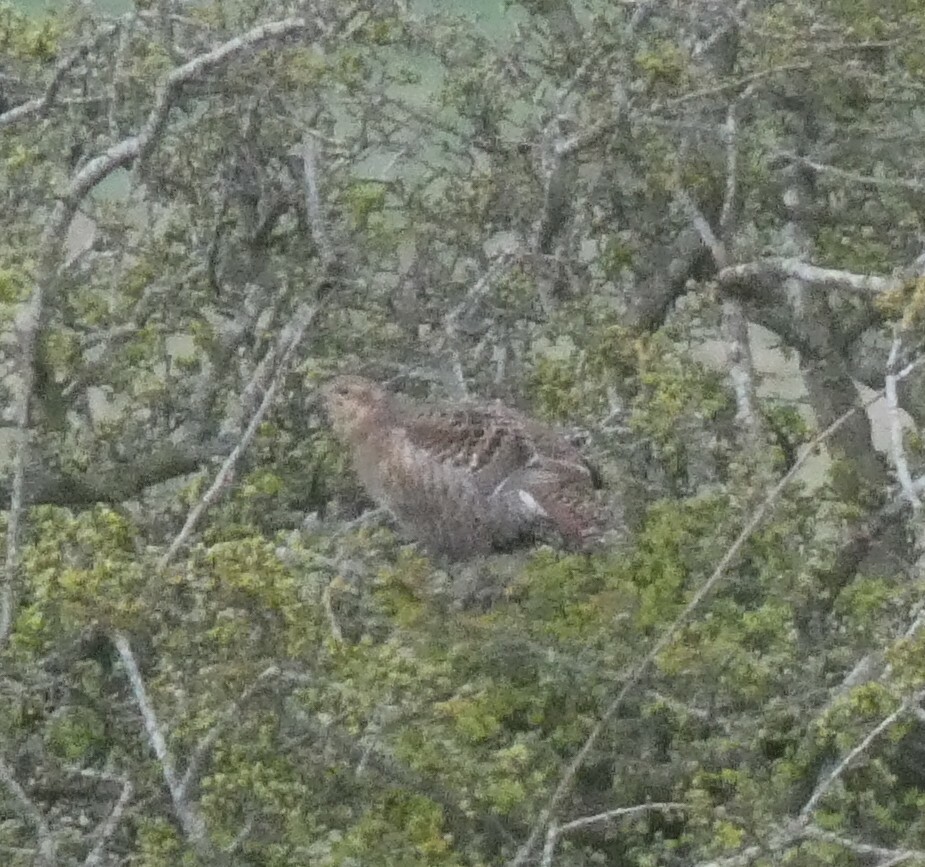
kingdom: Animalia
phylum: Chordata
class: Aves
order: Galliformes
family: Phasianidae
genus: Lyrurus
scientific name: Lyrurus tetrix
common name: Black grouse
